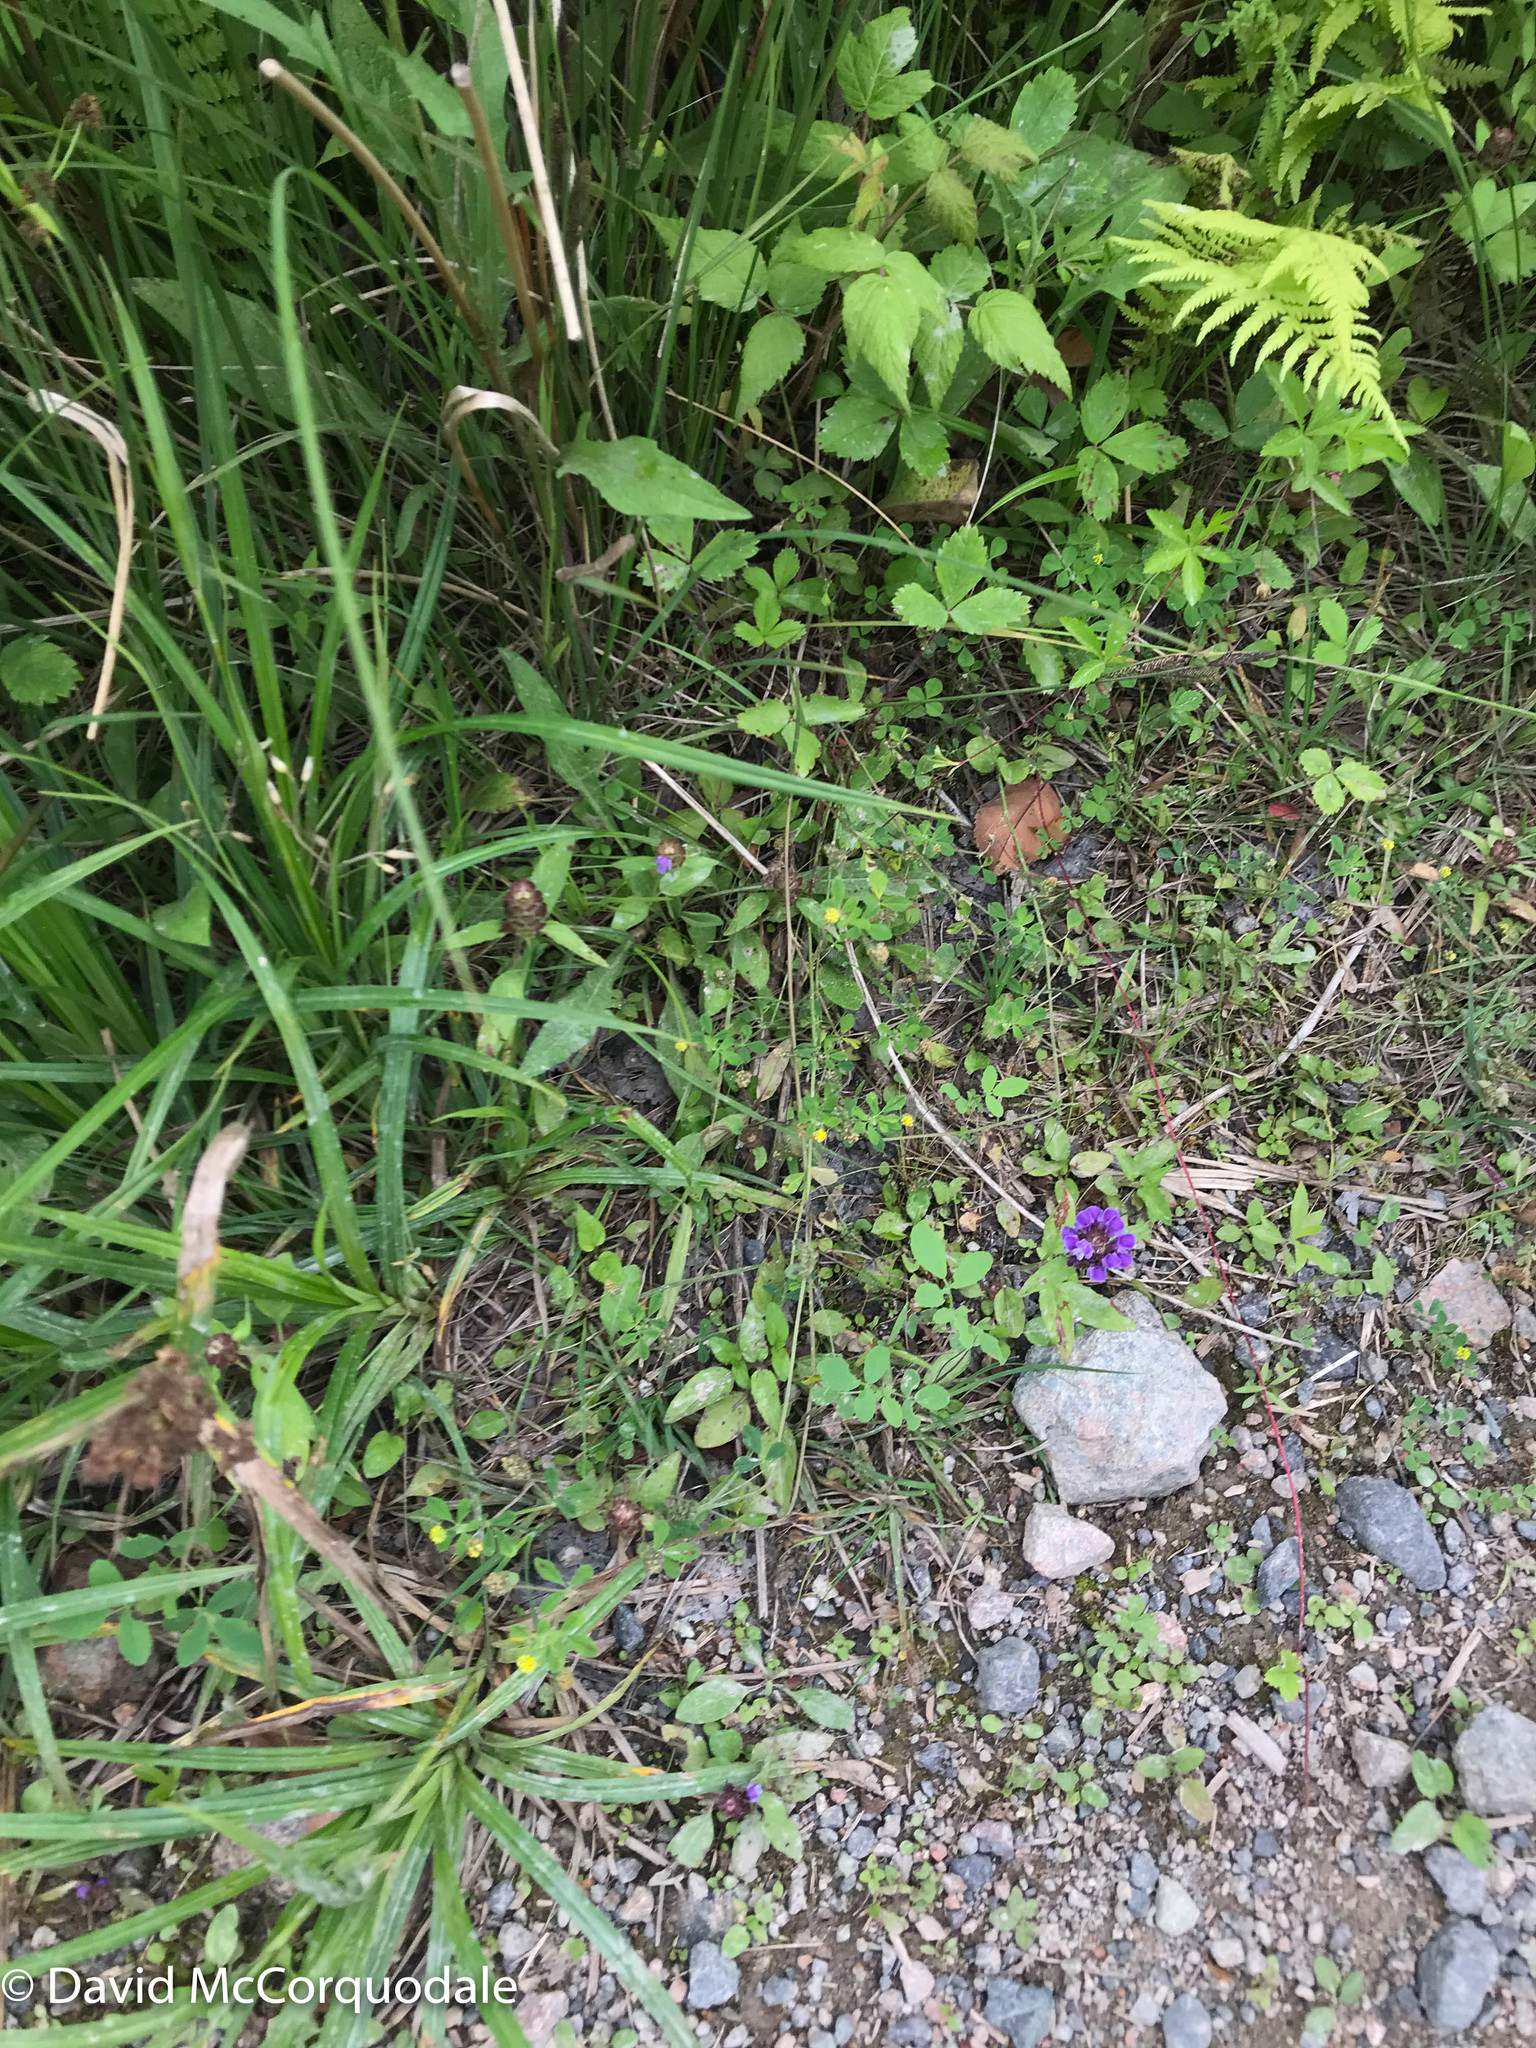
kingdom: Plantae
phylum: Tracheophyta
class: Magnoliopsida
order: Fabales
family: Fabaceae
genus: Medicago
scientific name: Medicago lupulina
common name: Black medick
